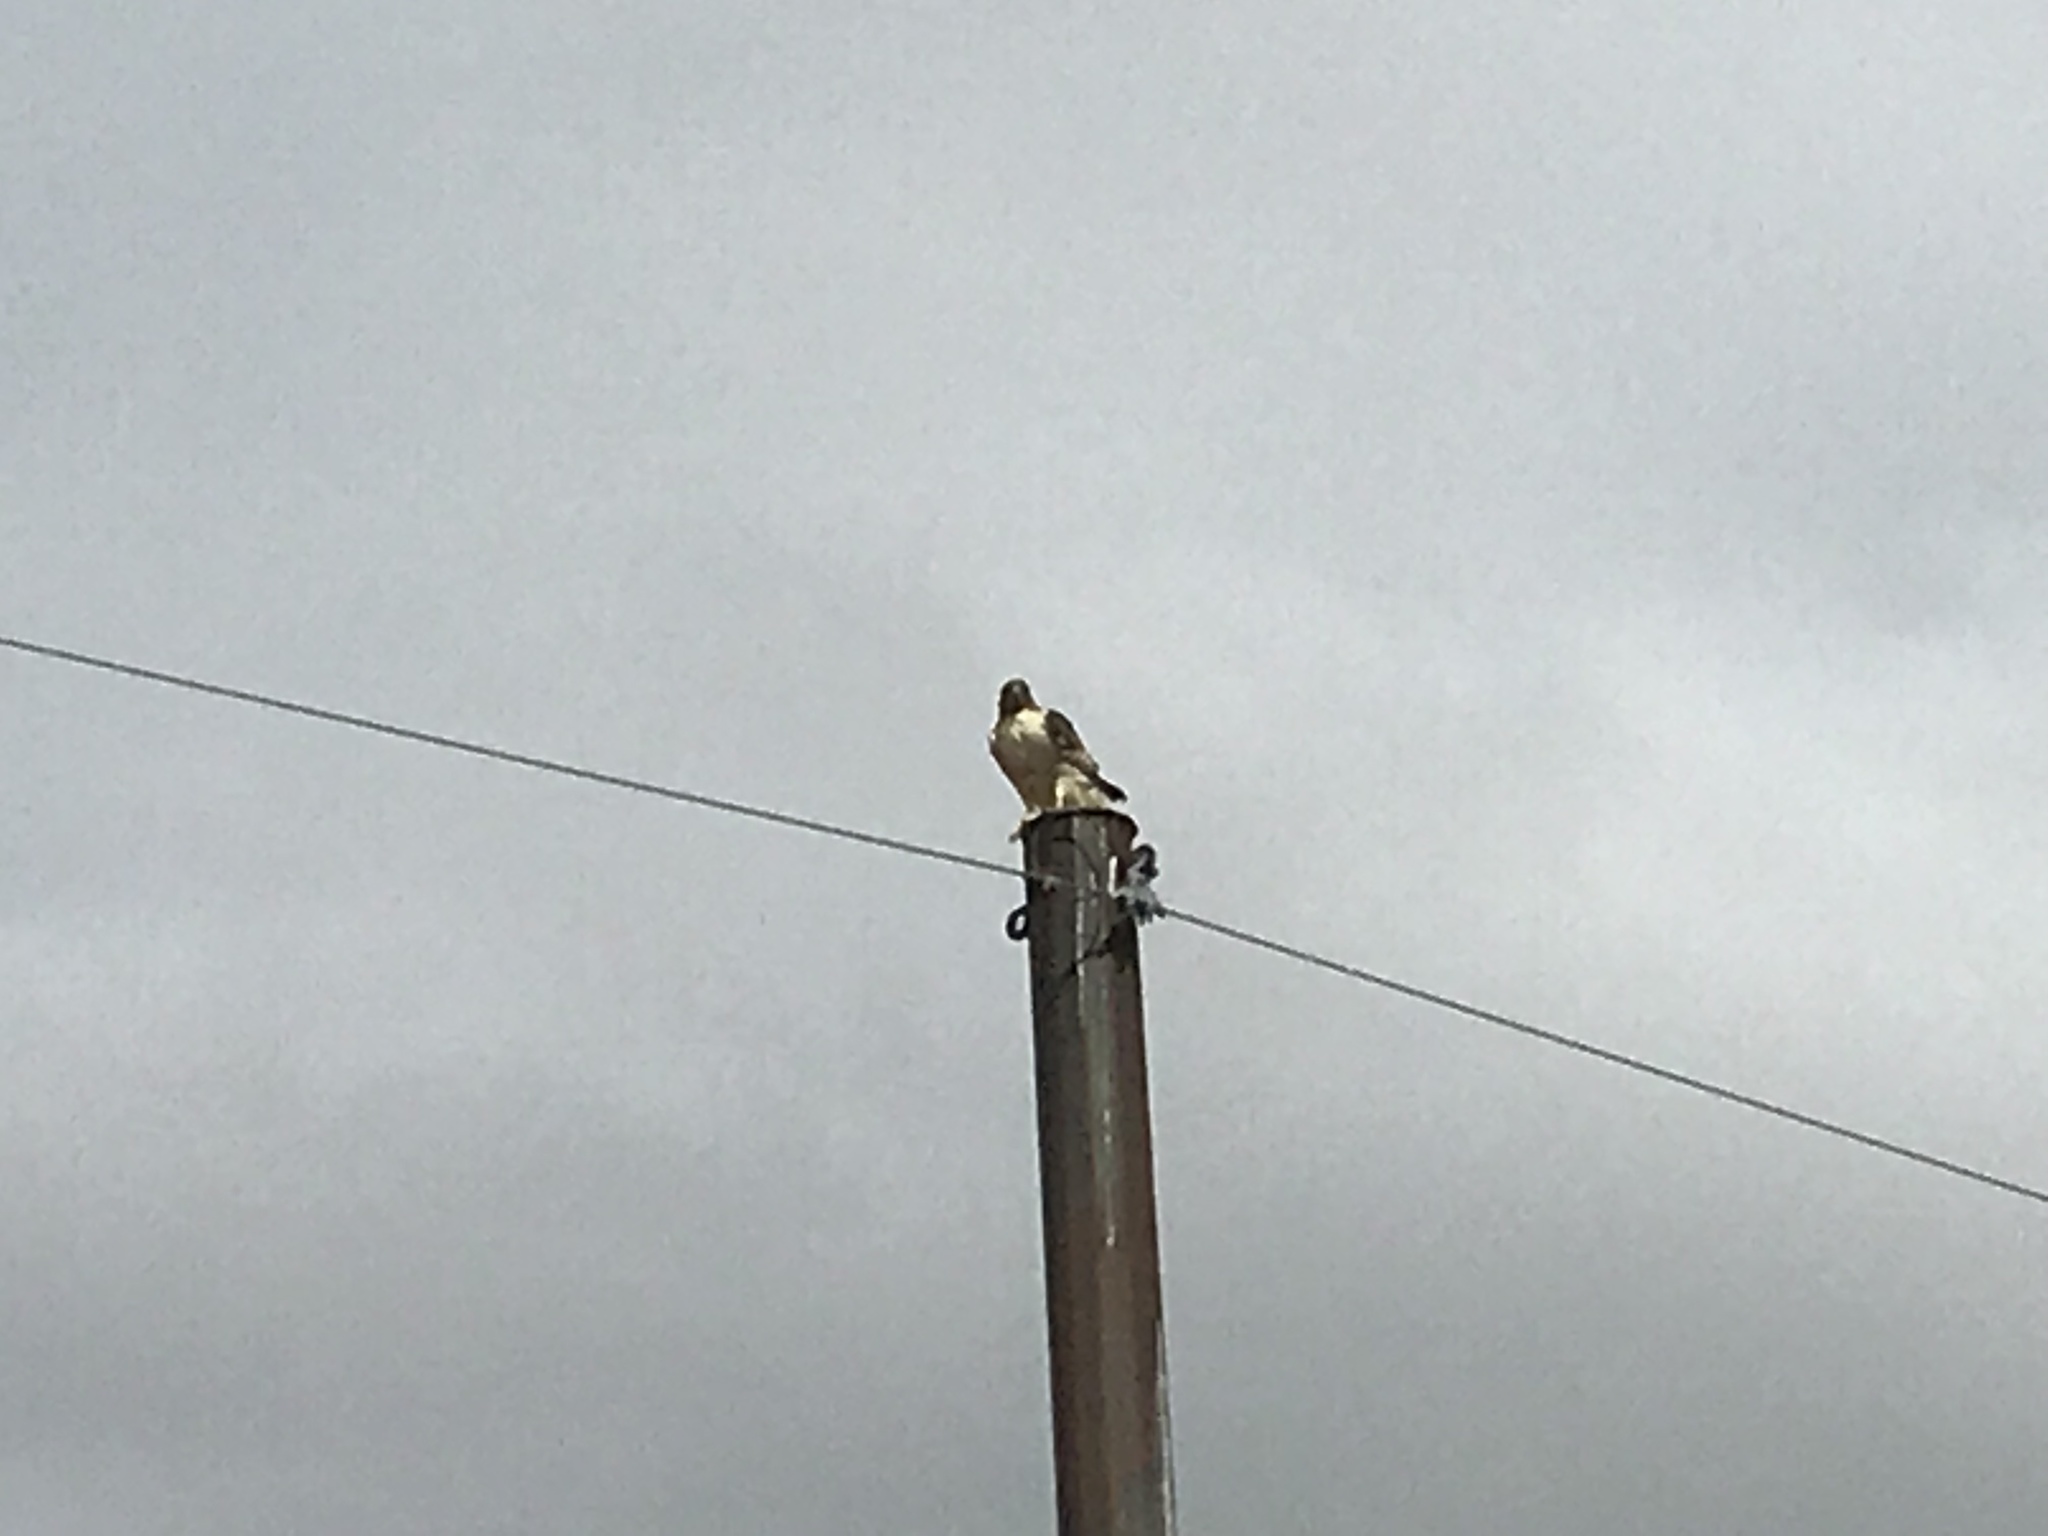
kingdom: Animalia
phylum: Chordata
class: Aves
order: Accipitriformes
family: Accipitridae
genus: Buteo
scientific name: Buteo jamaicensis
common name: Red-tailed hawk
